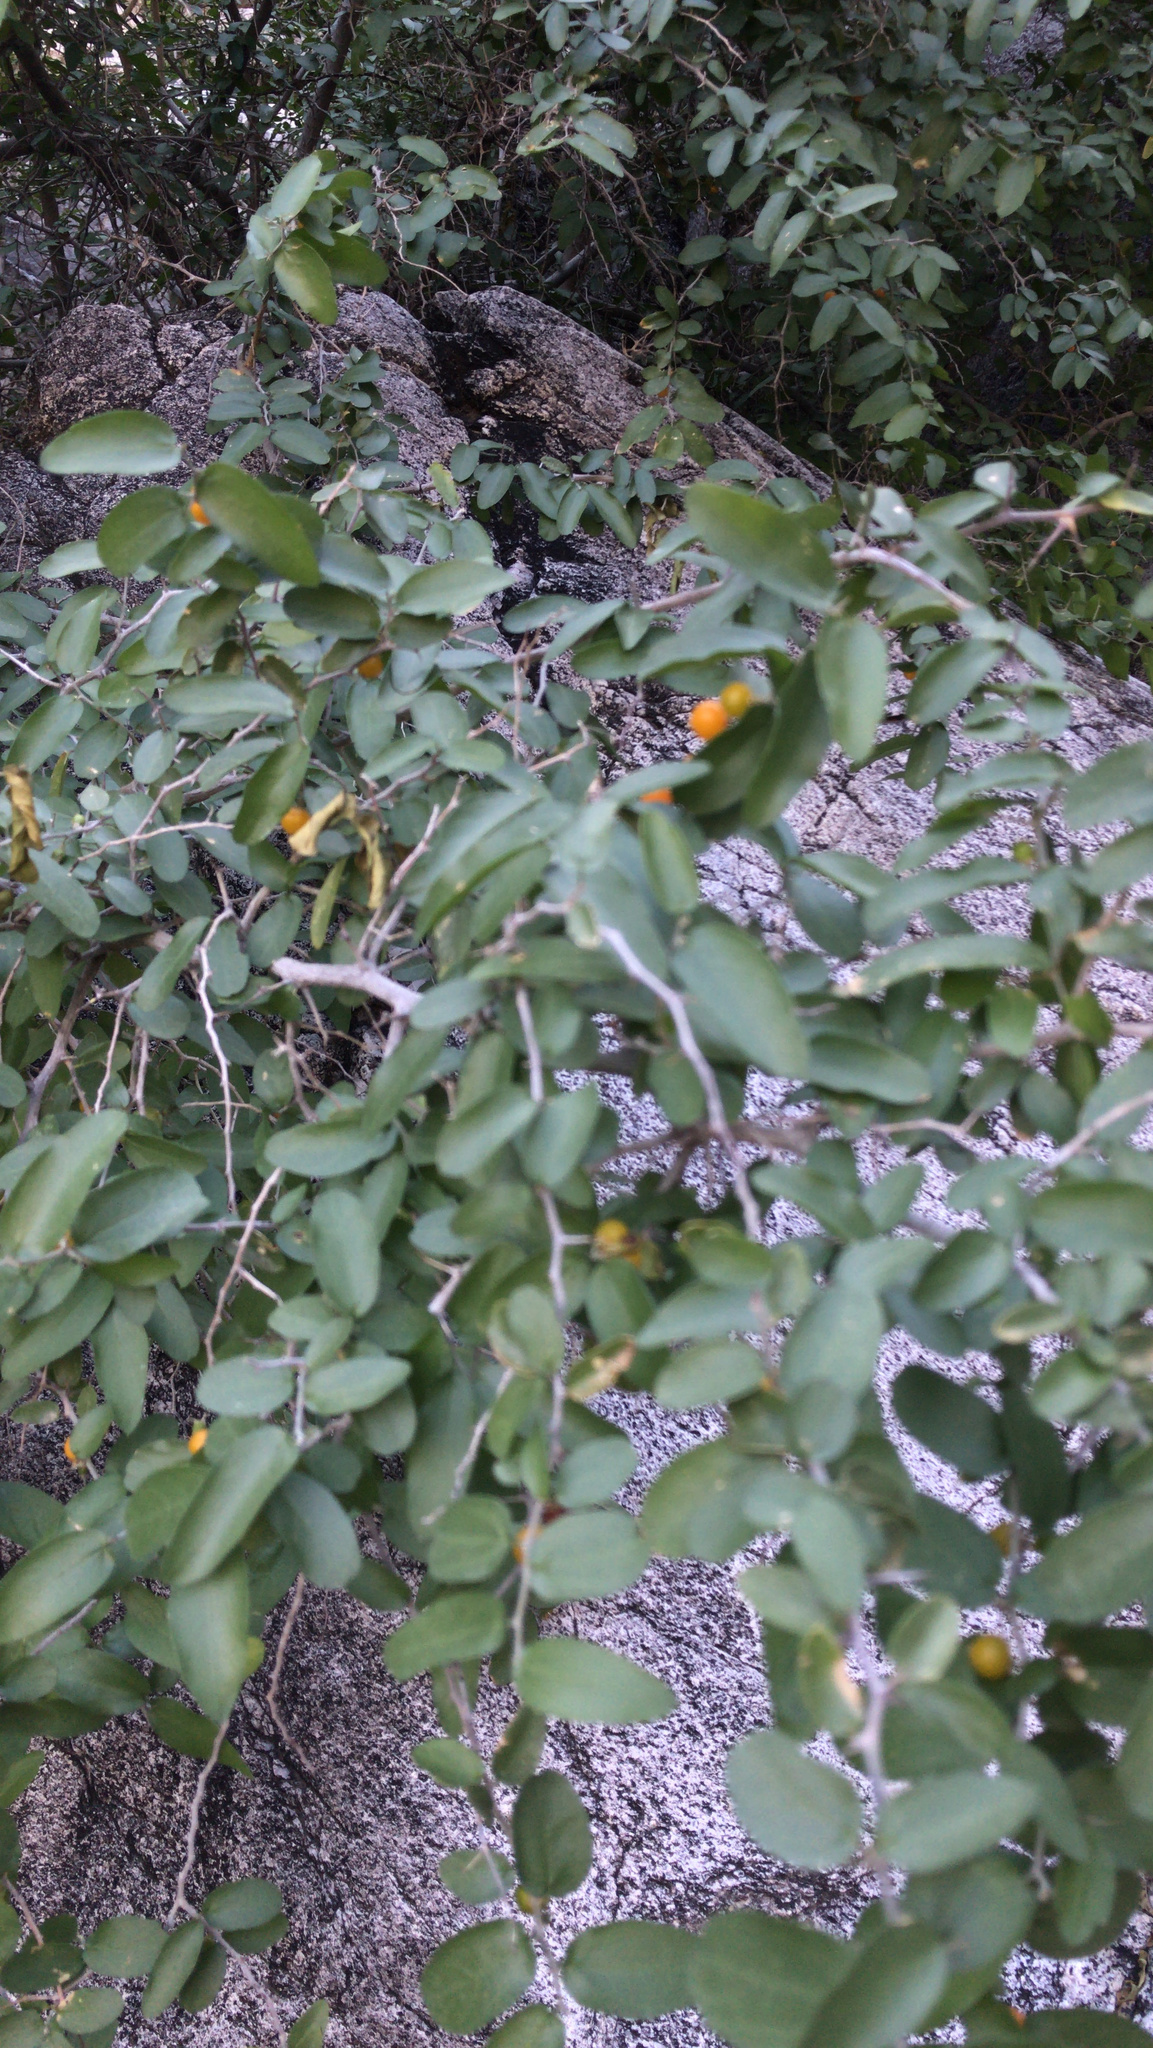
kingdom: Plantae
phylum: Tracheophyta
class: Magnoliopsida
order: Rosales
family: Cannabaceae
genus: Celtis
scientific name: Celtis pallida
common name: Desert hackberry
